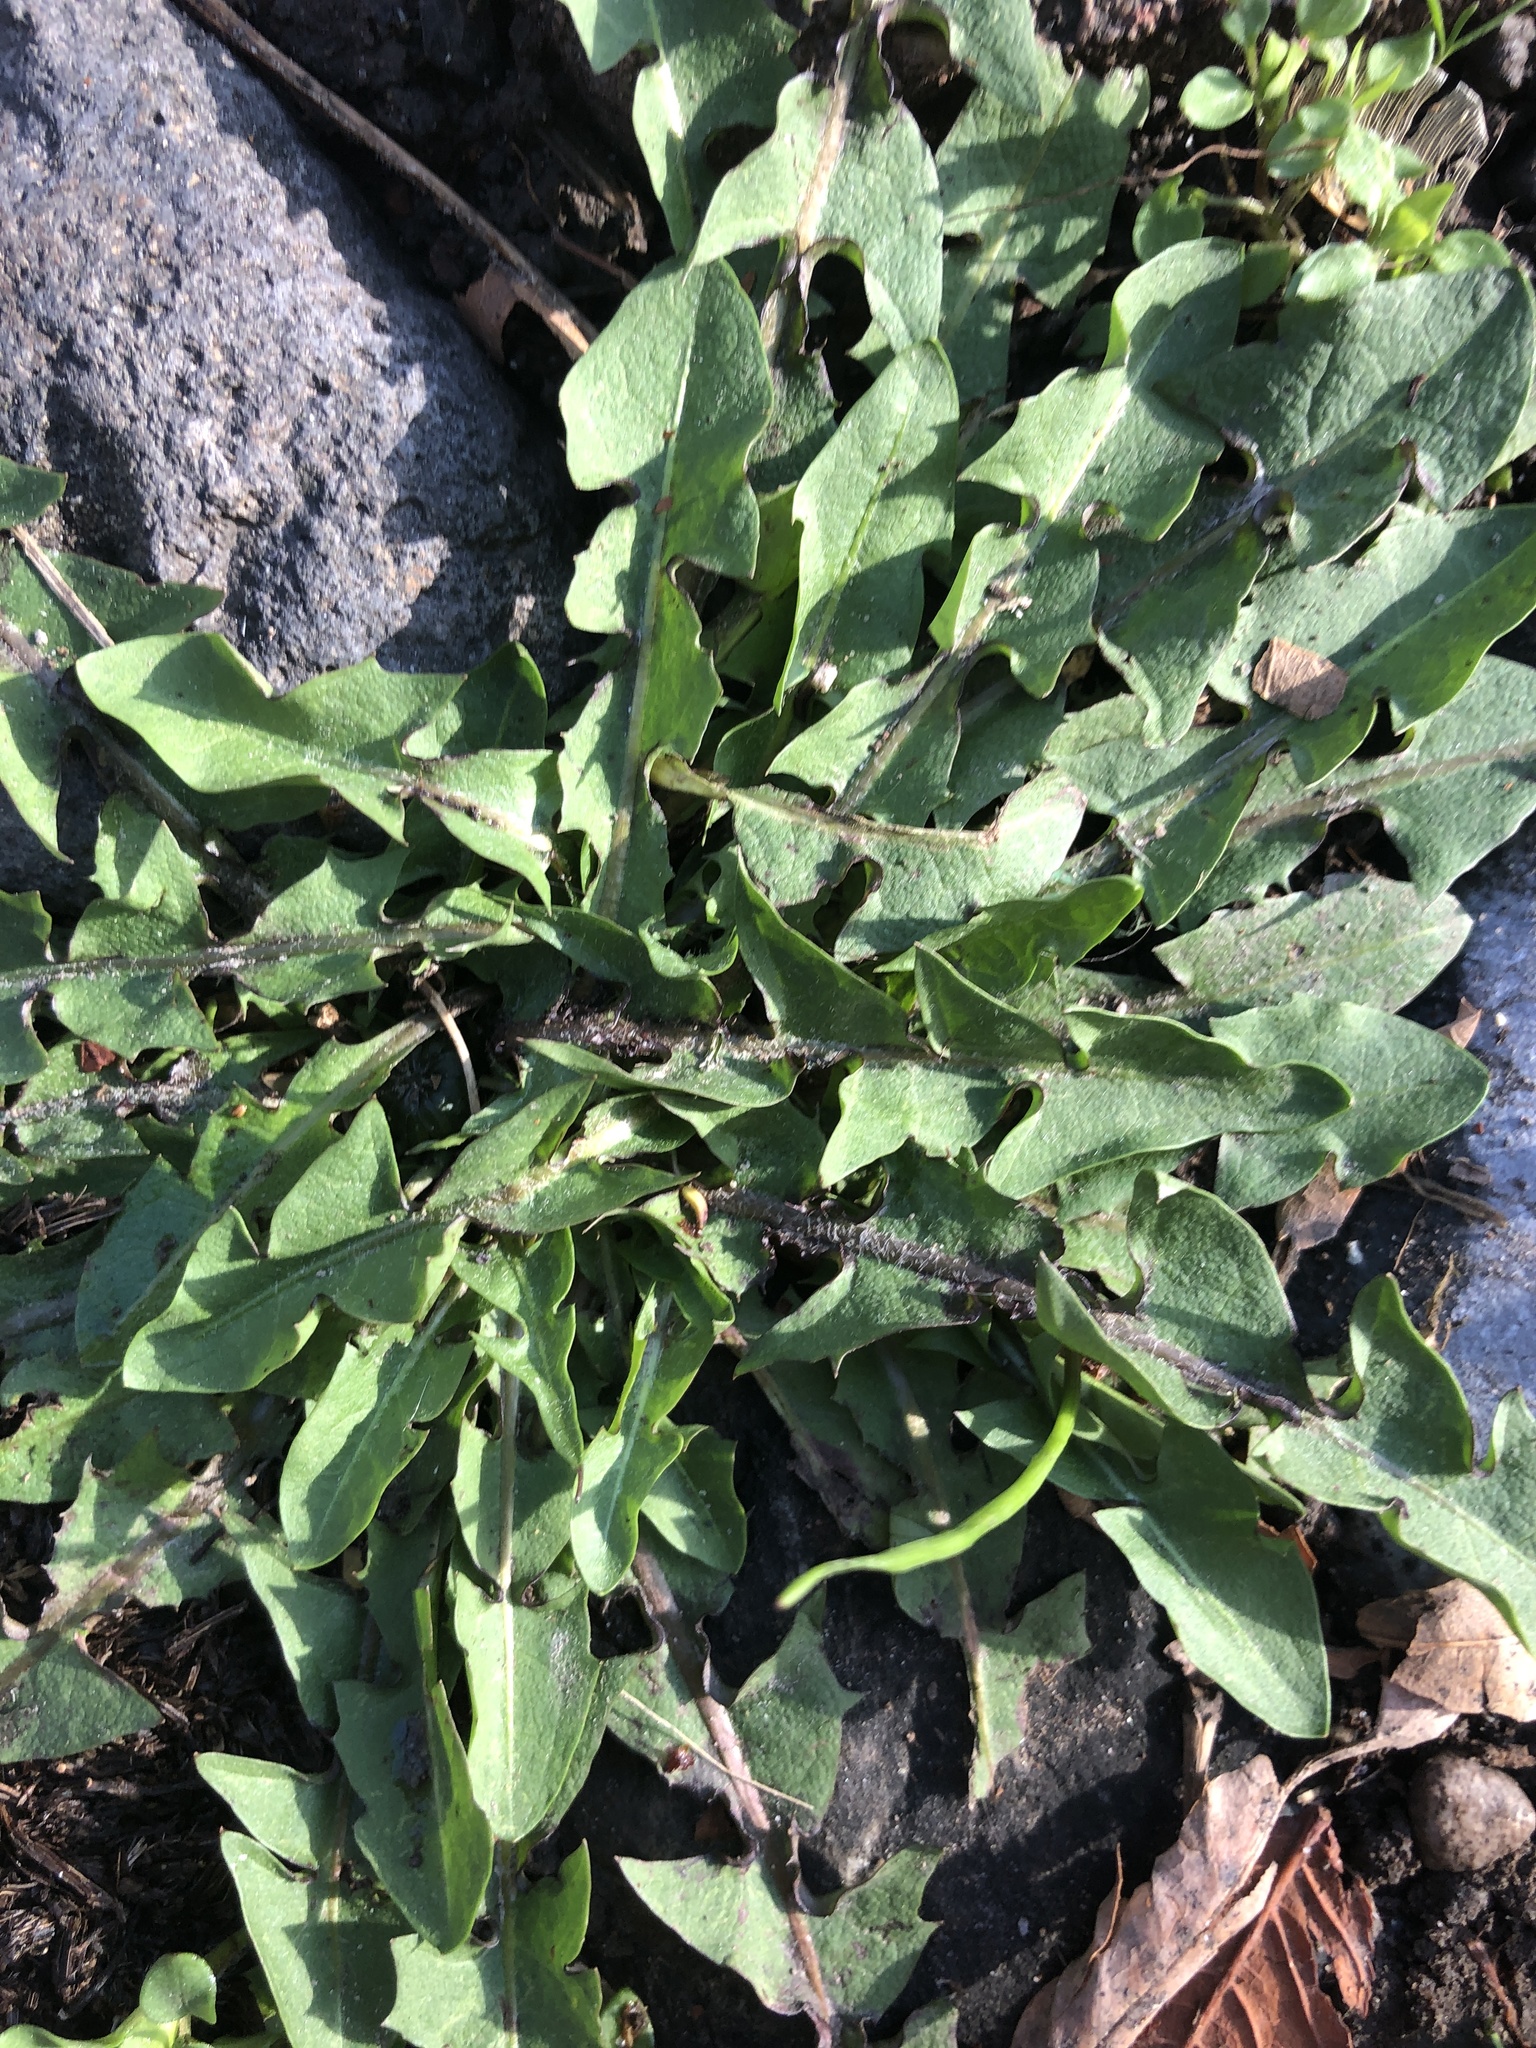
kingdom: Plantae
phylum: Tracheophyta
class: Magnoliopsida
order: Asterales
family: Asteraceae
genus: Taraxacum
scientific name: Taraxacum officinale
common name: Common dandelion
